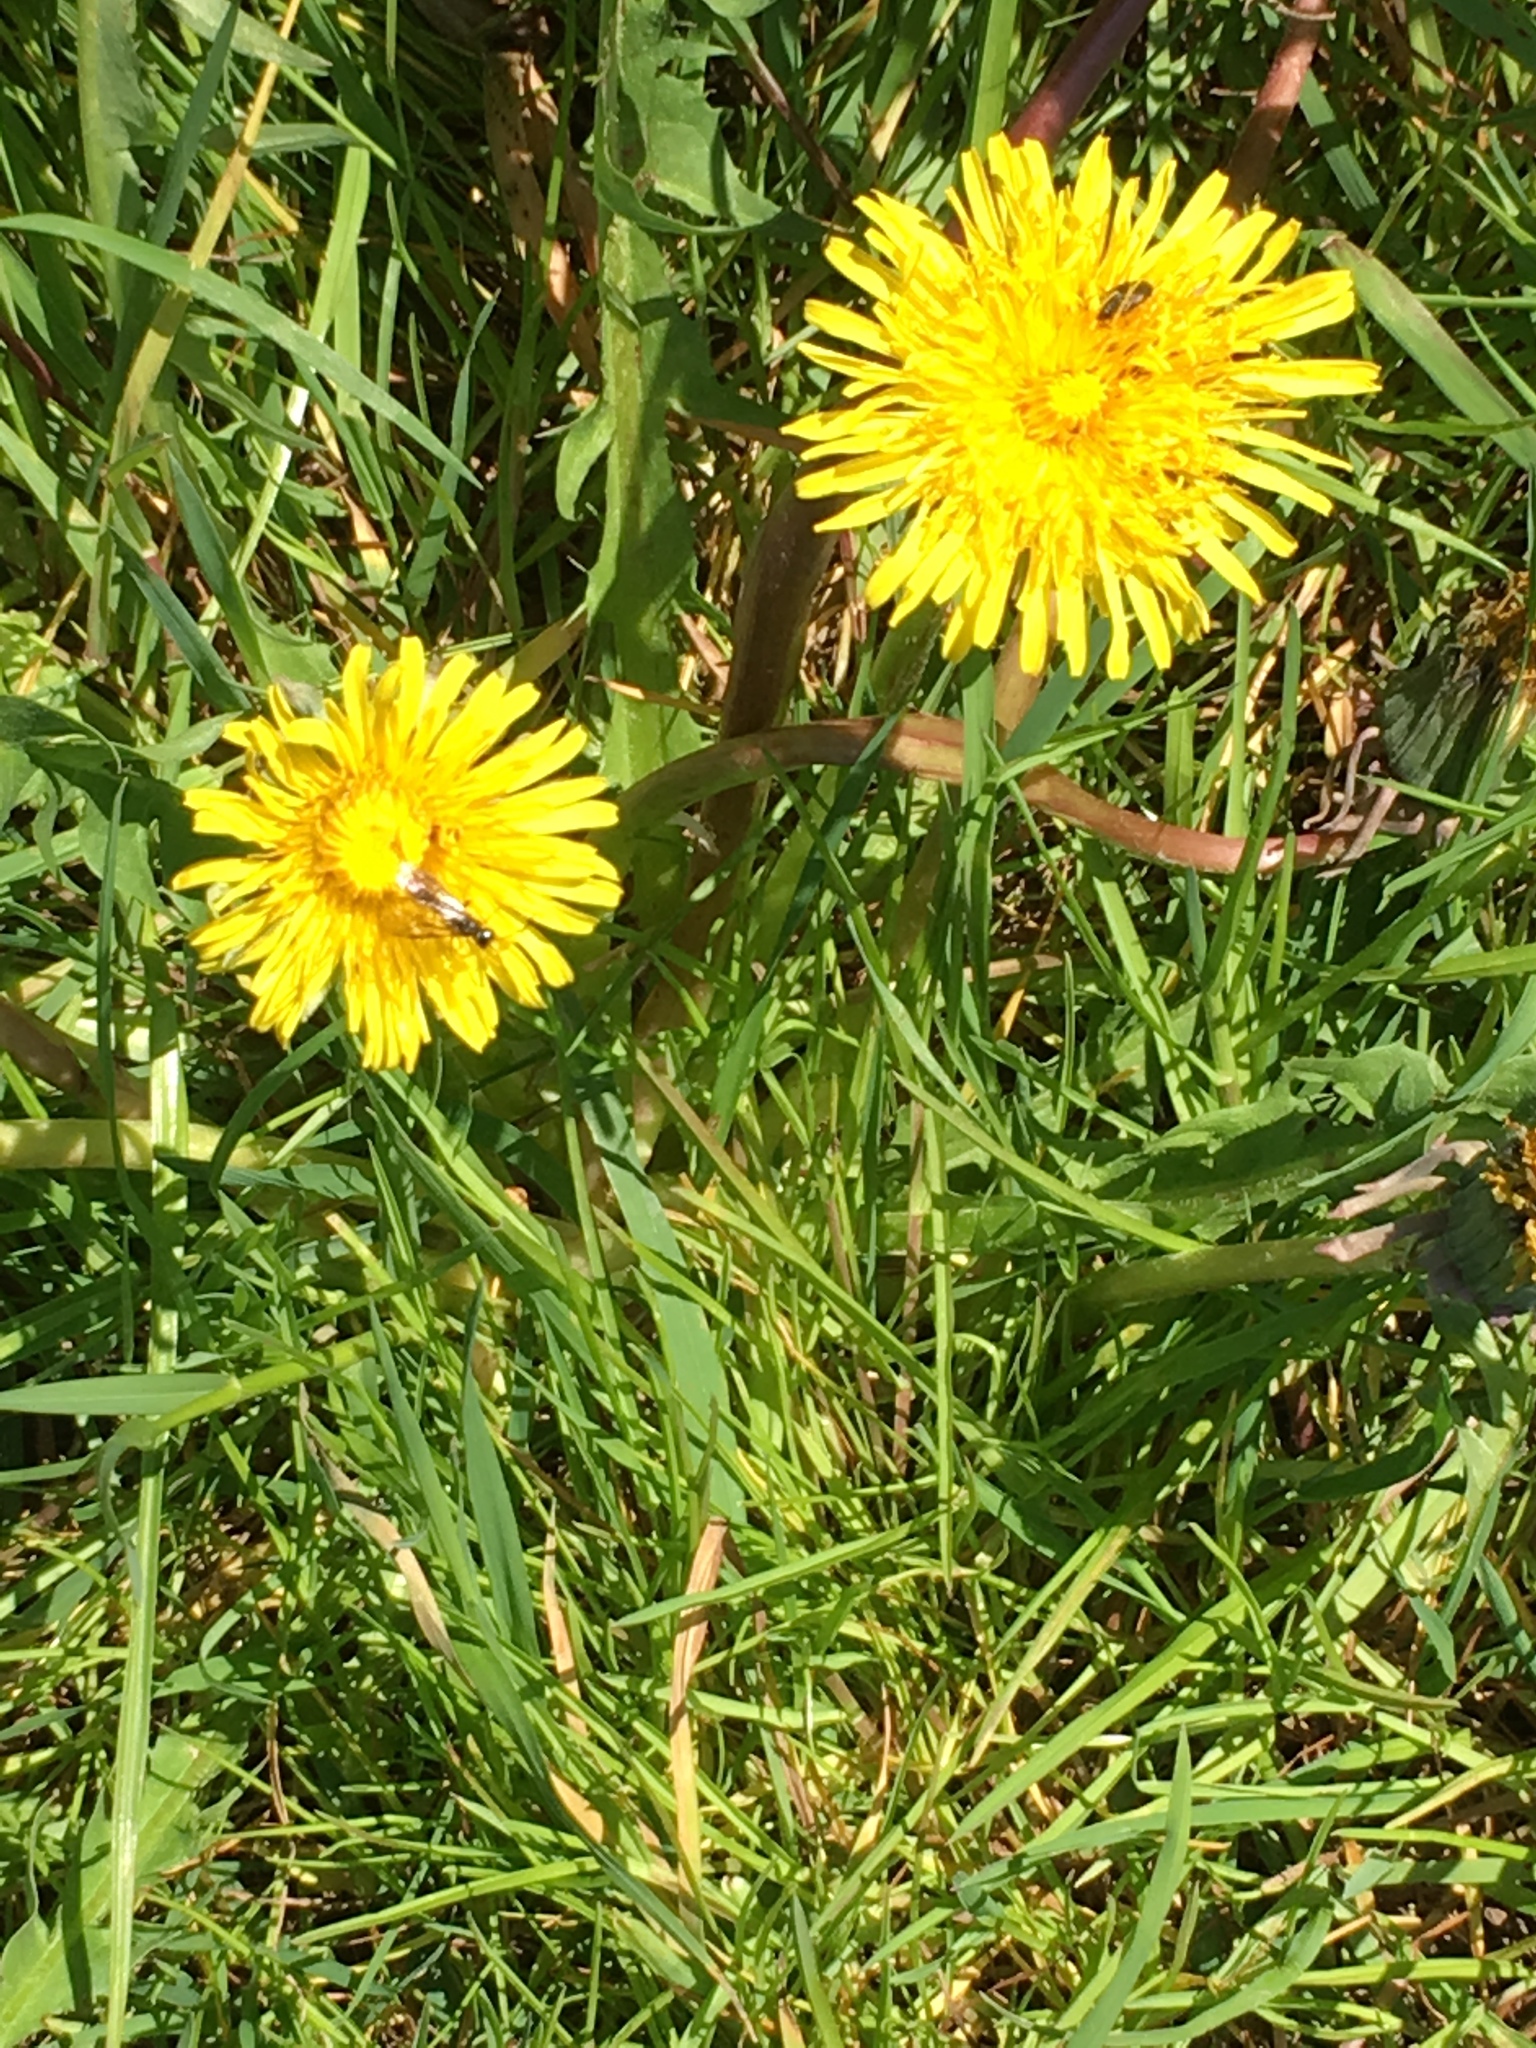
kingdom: Plantae
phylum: Tracheophyta
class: Magnoliopsida
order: Asterales
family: Asteraceae
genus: Taraxacum
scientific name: Taraxacum officinale
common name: Common dandelion
